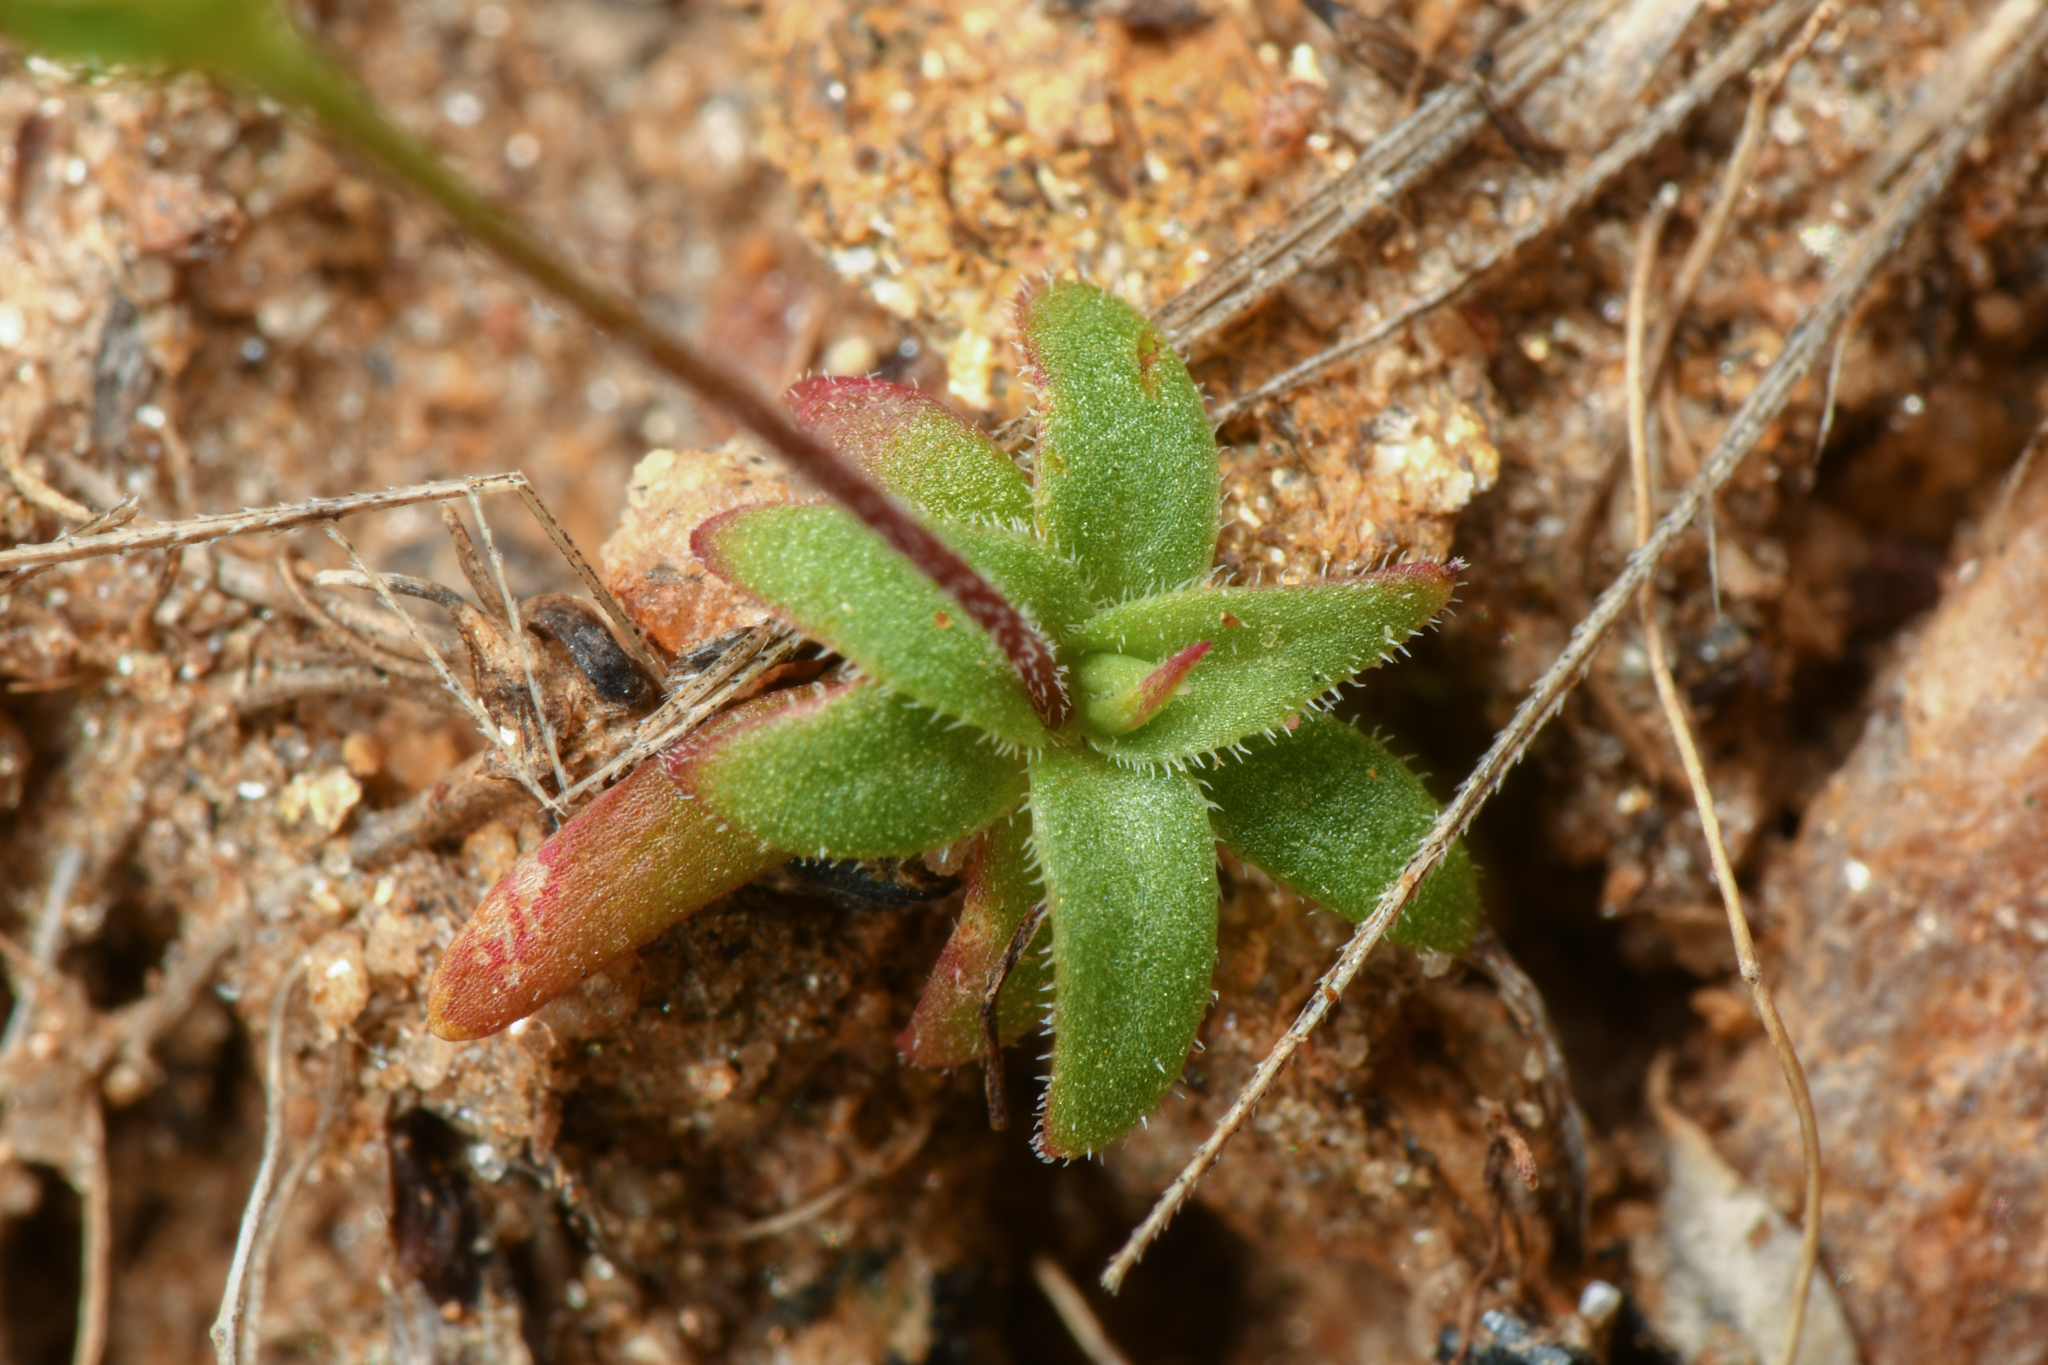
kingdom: Plantae
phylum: Tracheophyta
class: Magnoliopsida
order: Ericales
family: Primulaceae
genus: Androsace
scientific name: Androsace elongata
